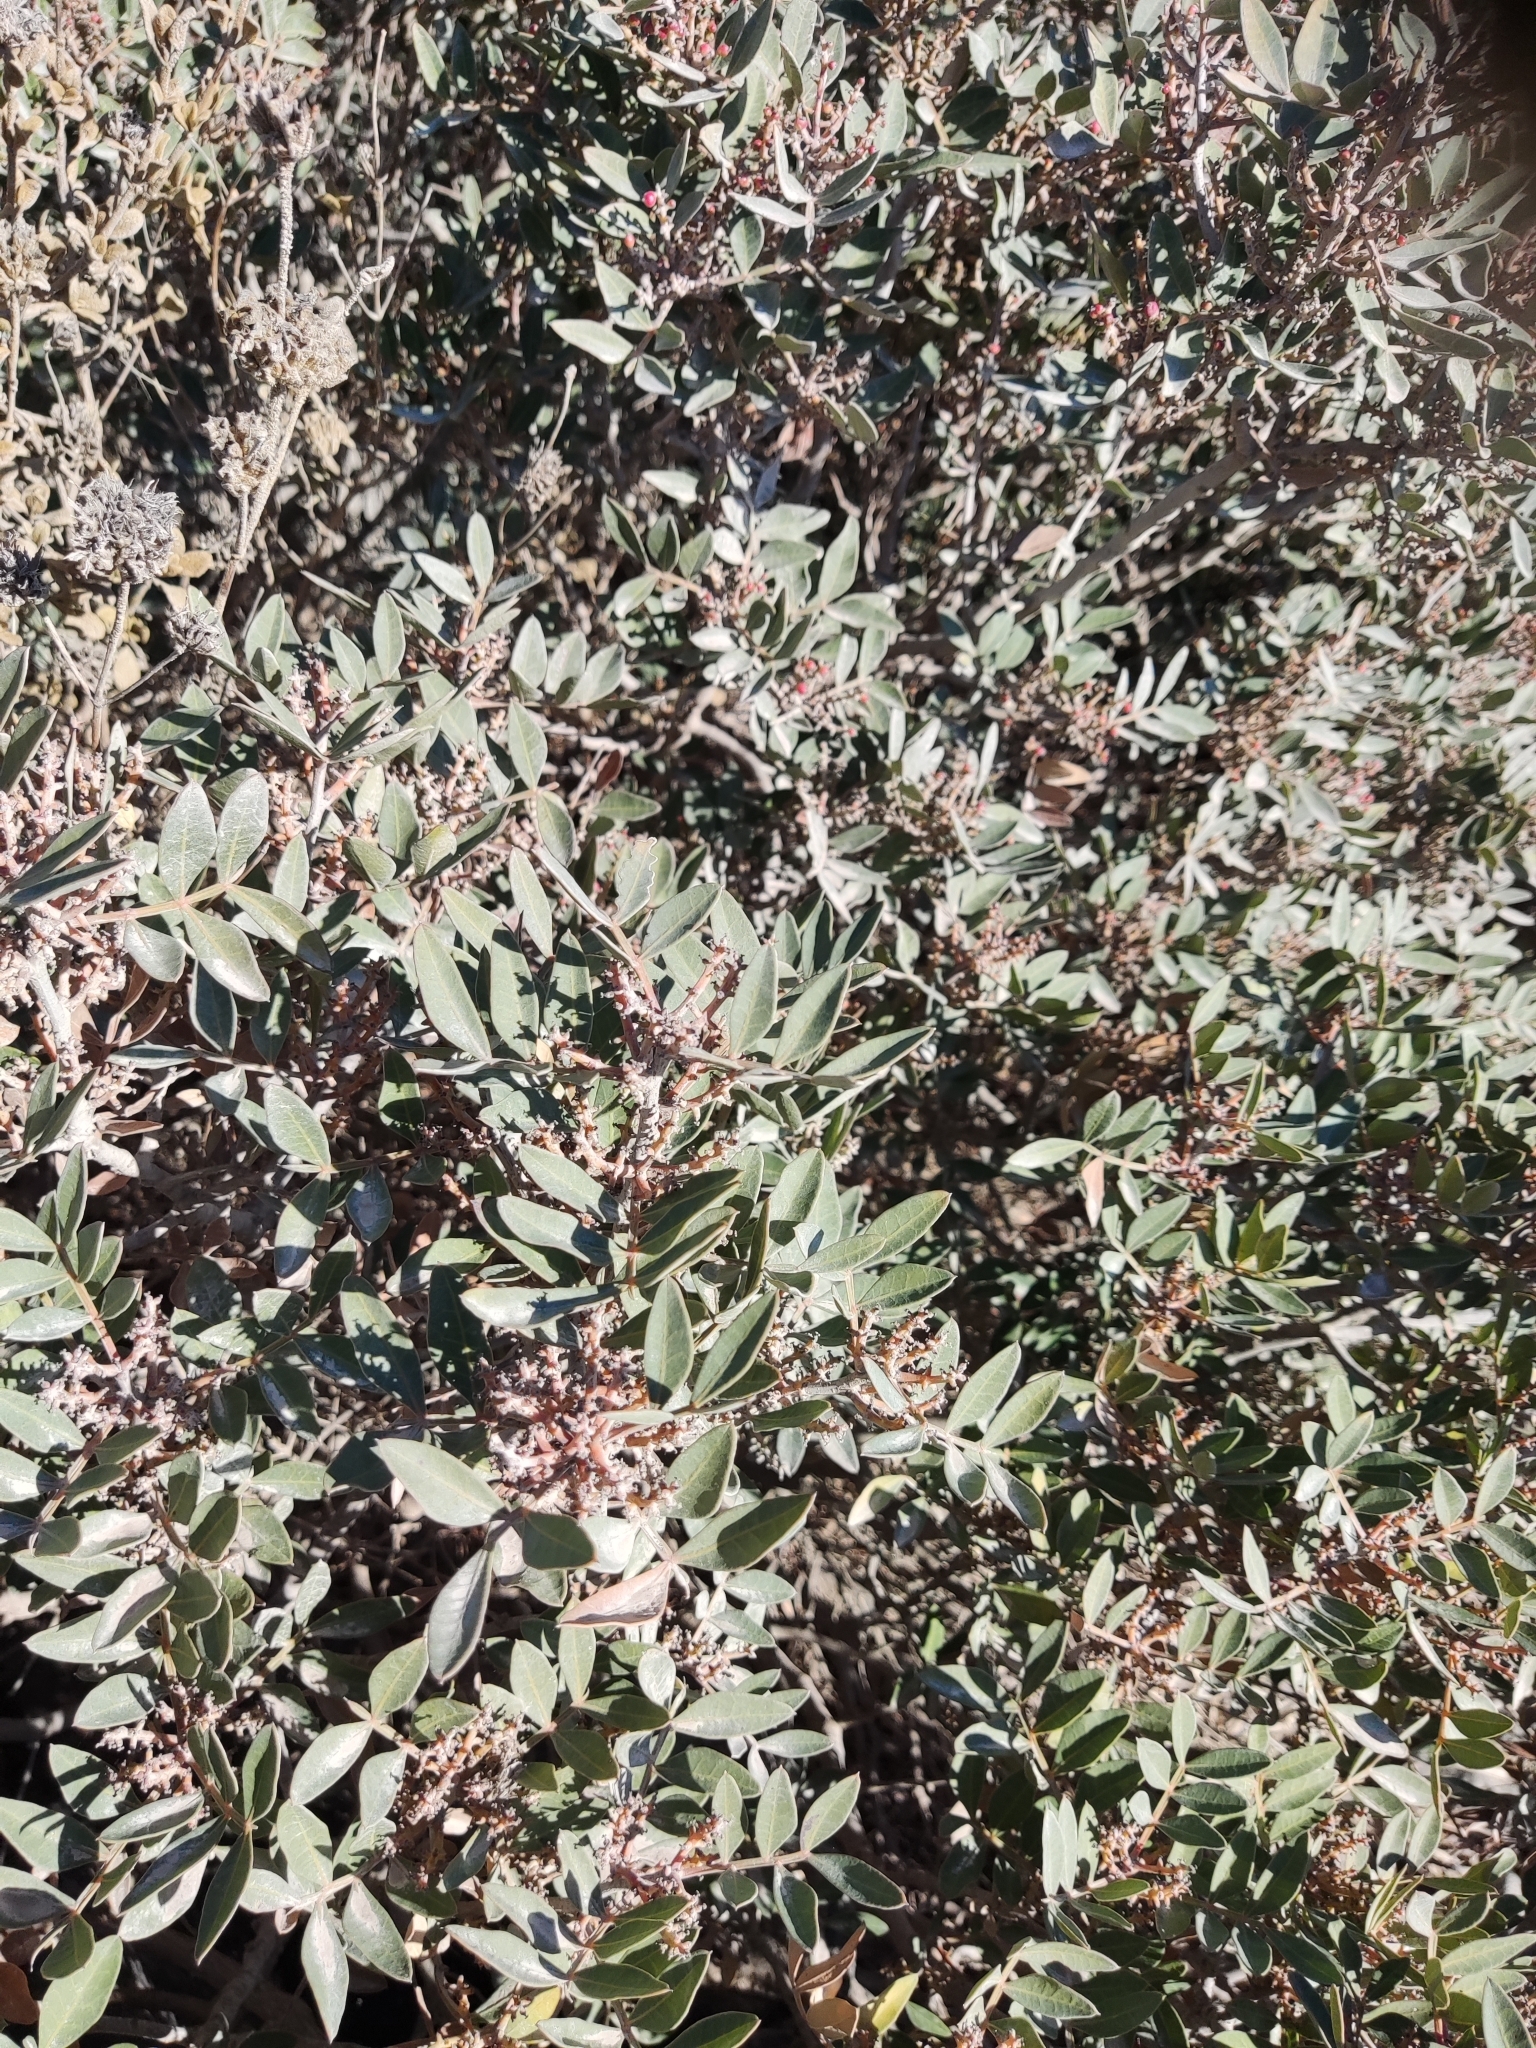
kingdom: Plantae
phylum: Tracheophyta
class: Magnoliopsida
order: Sapindales
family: Anacardiaceae
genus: Pistacia
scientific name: Pistacia lentiscus
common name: Lentisk
